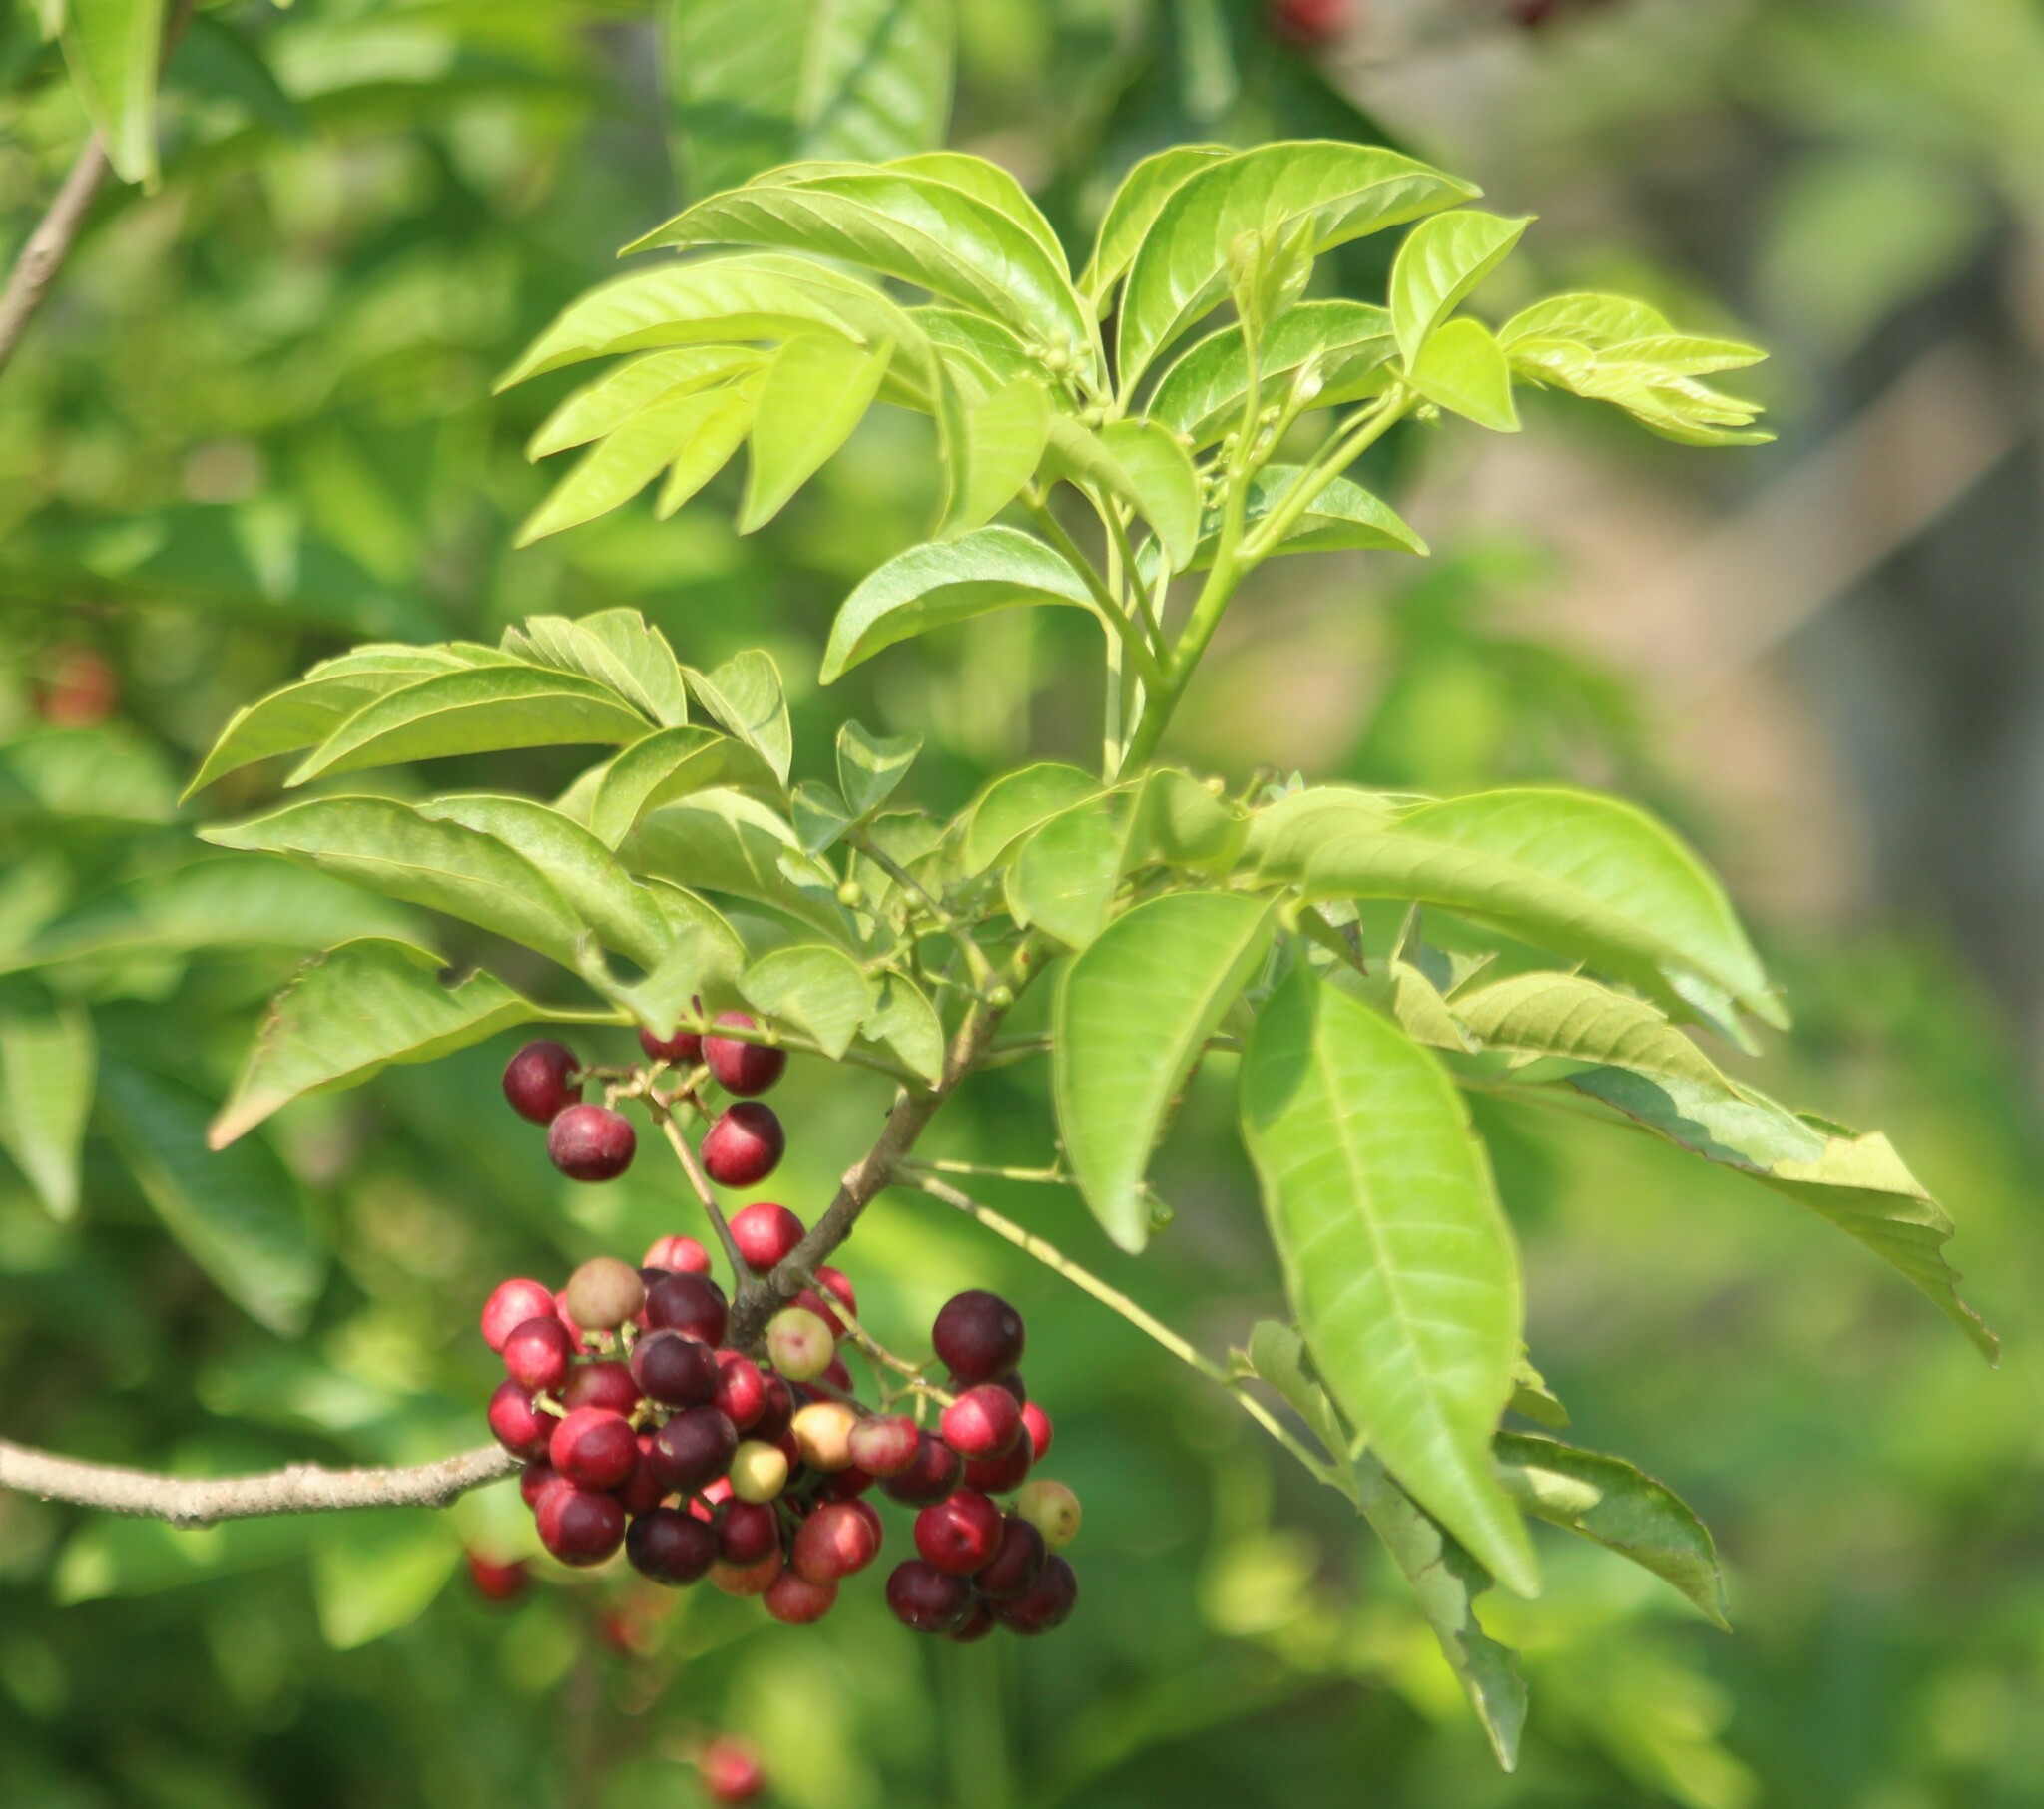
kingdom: Plantae
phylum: Tracheophyta
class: Magnoliopsida
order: Sapindales
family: Meliaceae
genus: Cipadessa
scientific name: Cipadessa baccifera
